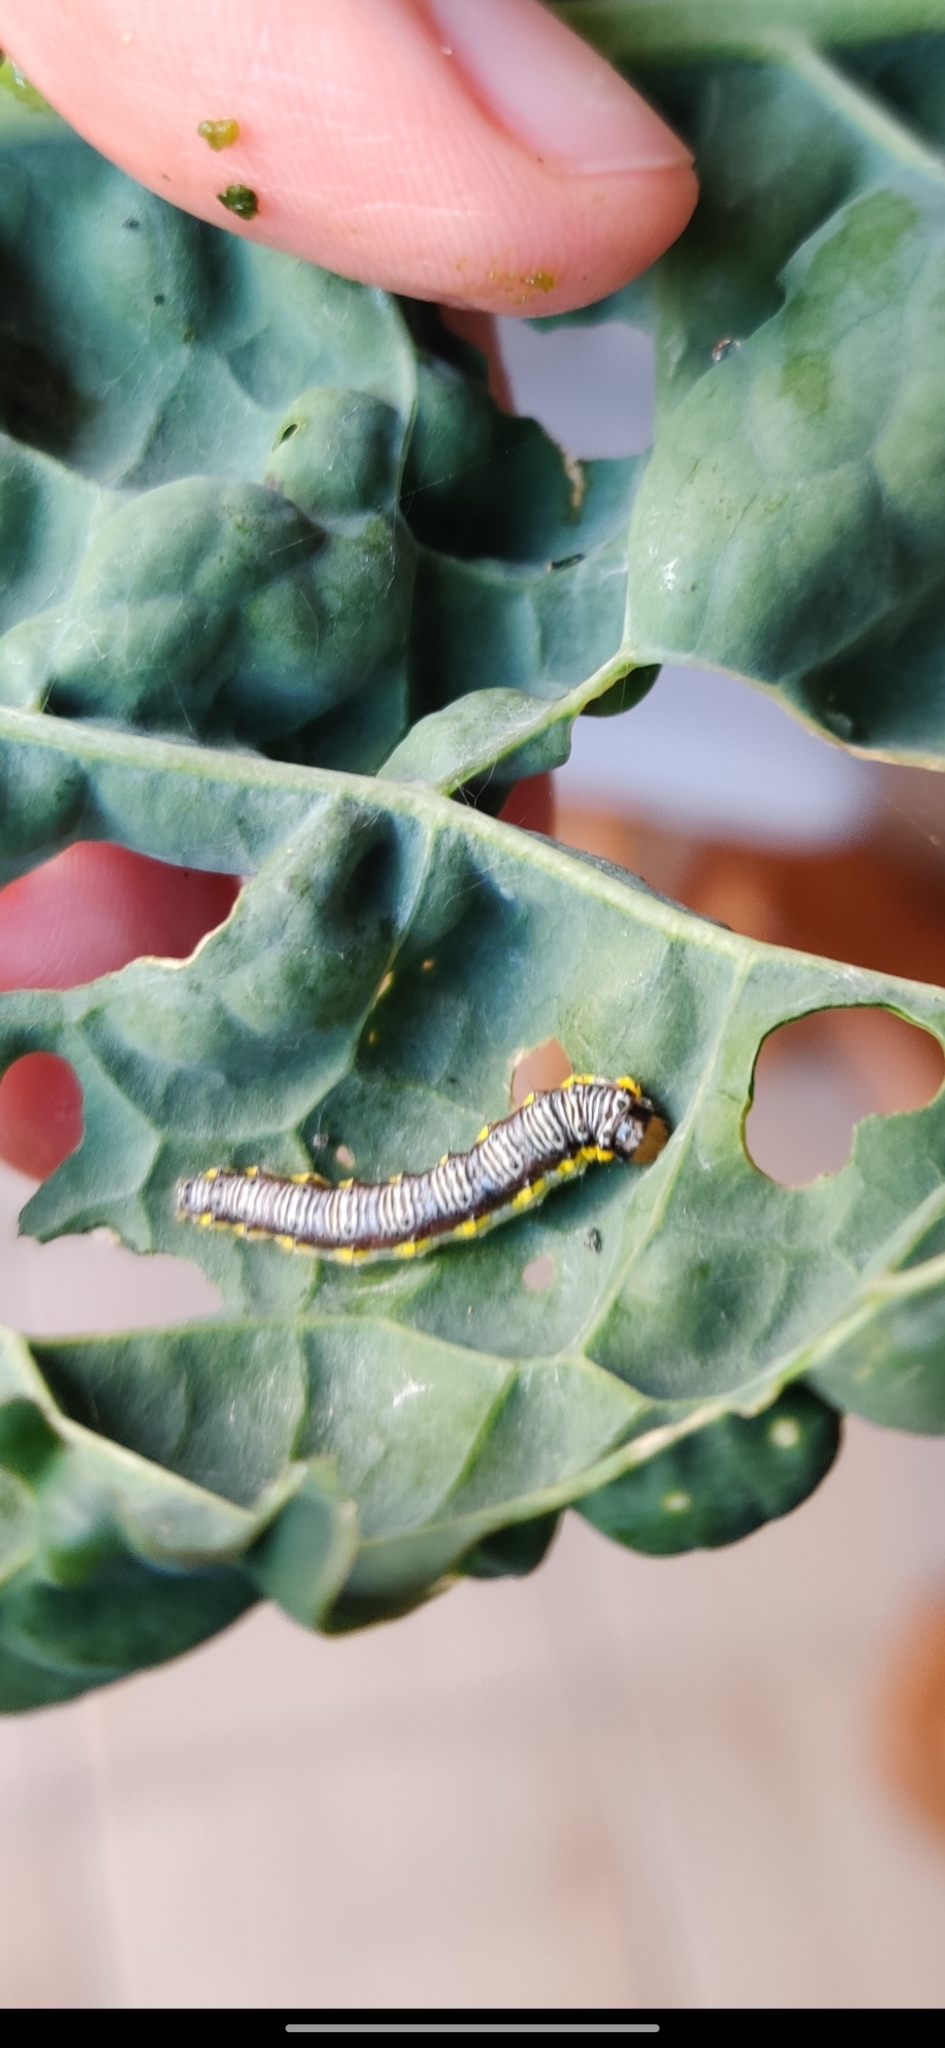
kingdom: Animalia
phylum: Arthropoda
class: Insecta
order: Lepidoptera
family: Crambidae
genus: Evergestis
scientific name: Evergestis rimosalis
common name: Cross-striped cabbageworm moth
